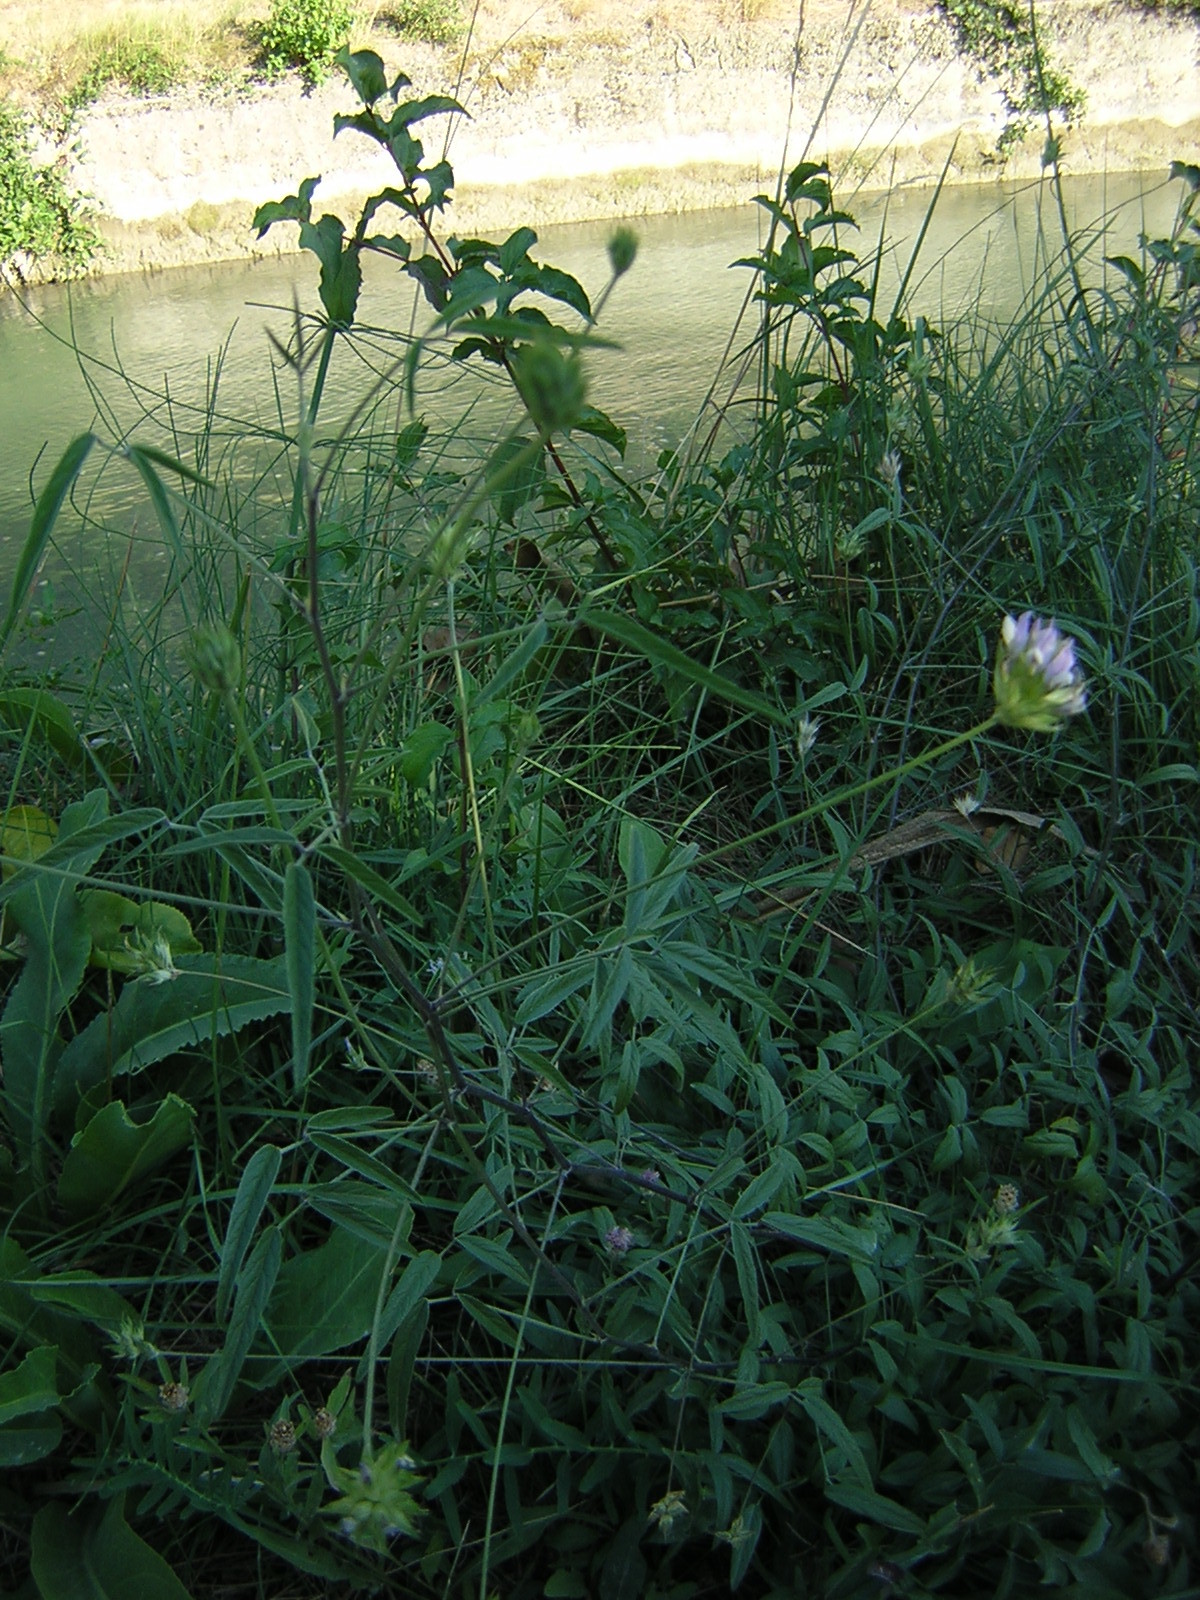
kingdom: Plantae
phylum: Tracheophyta
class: Magnoliopsida
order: Fabales
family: Fabaceae
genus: Bituminaria
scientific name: Bituminaria bituminosa
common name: Arabian pea
